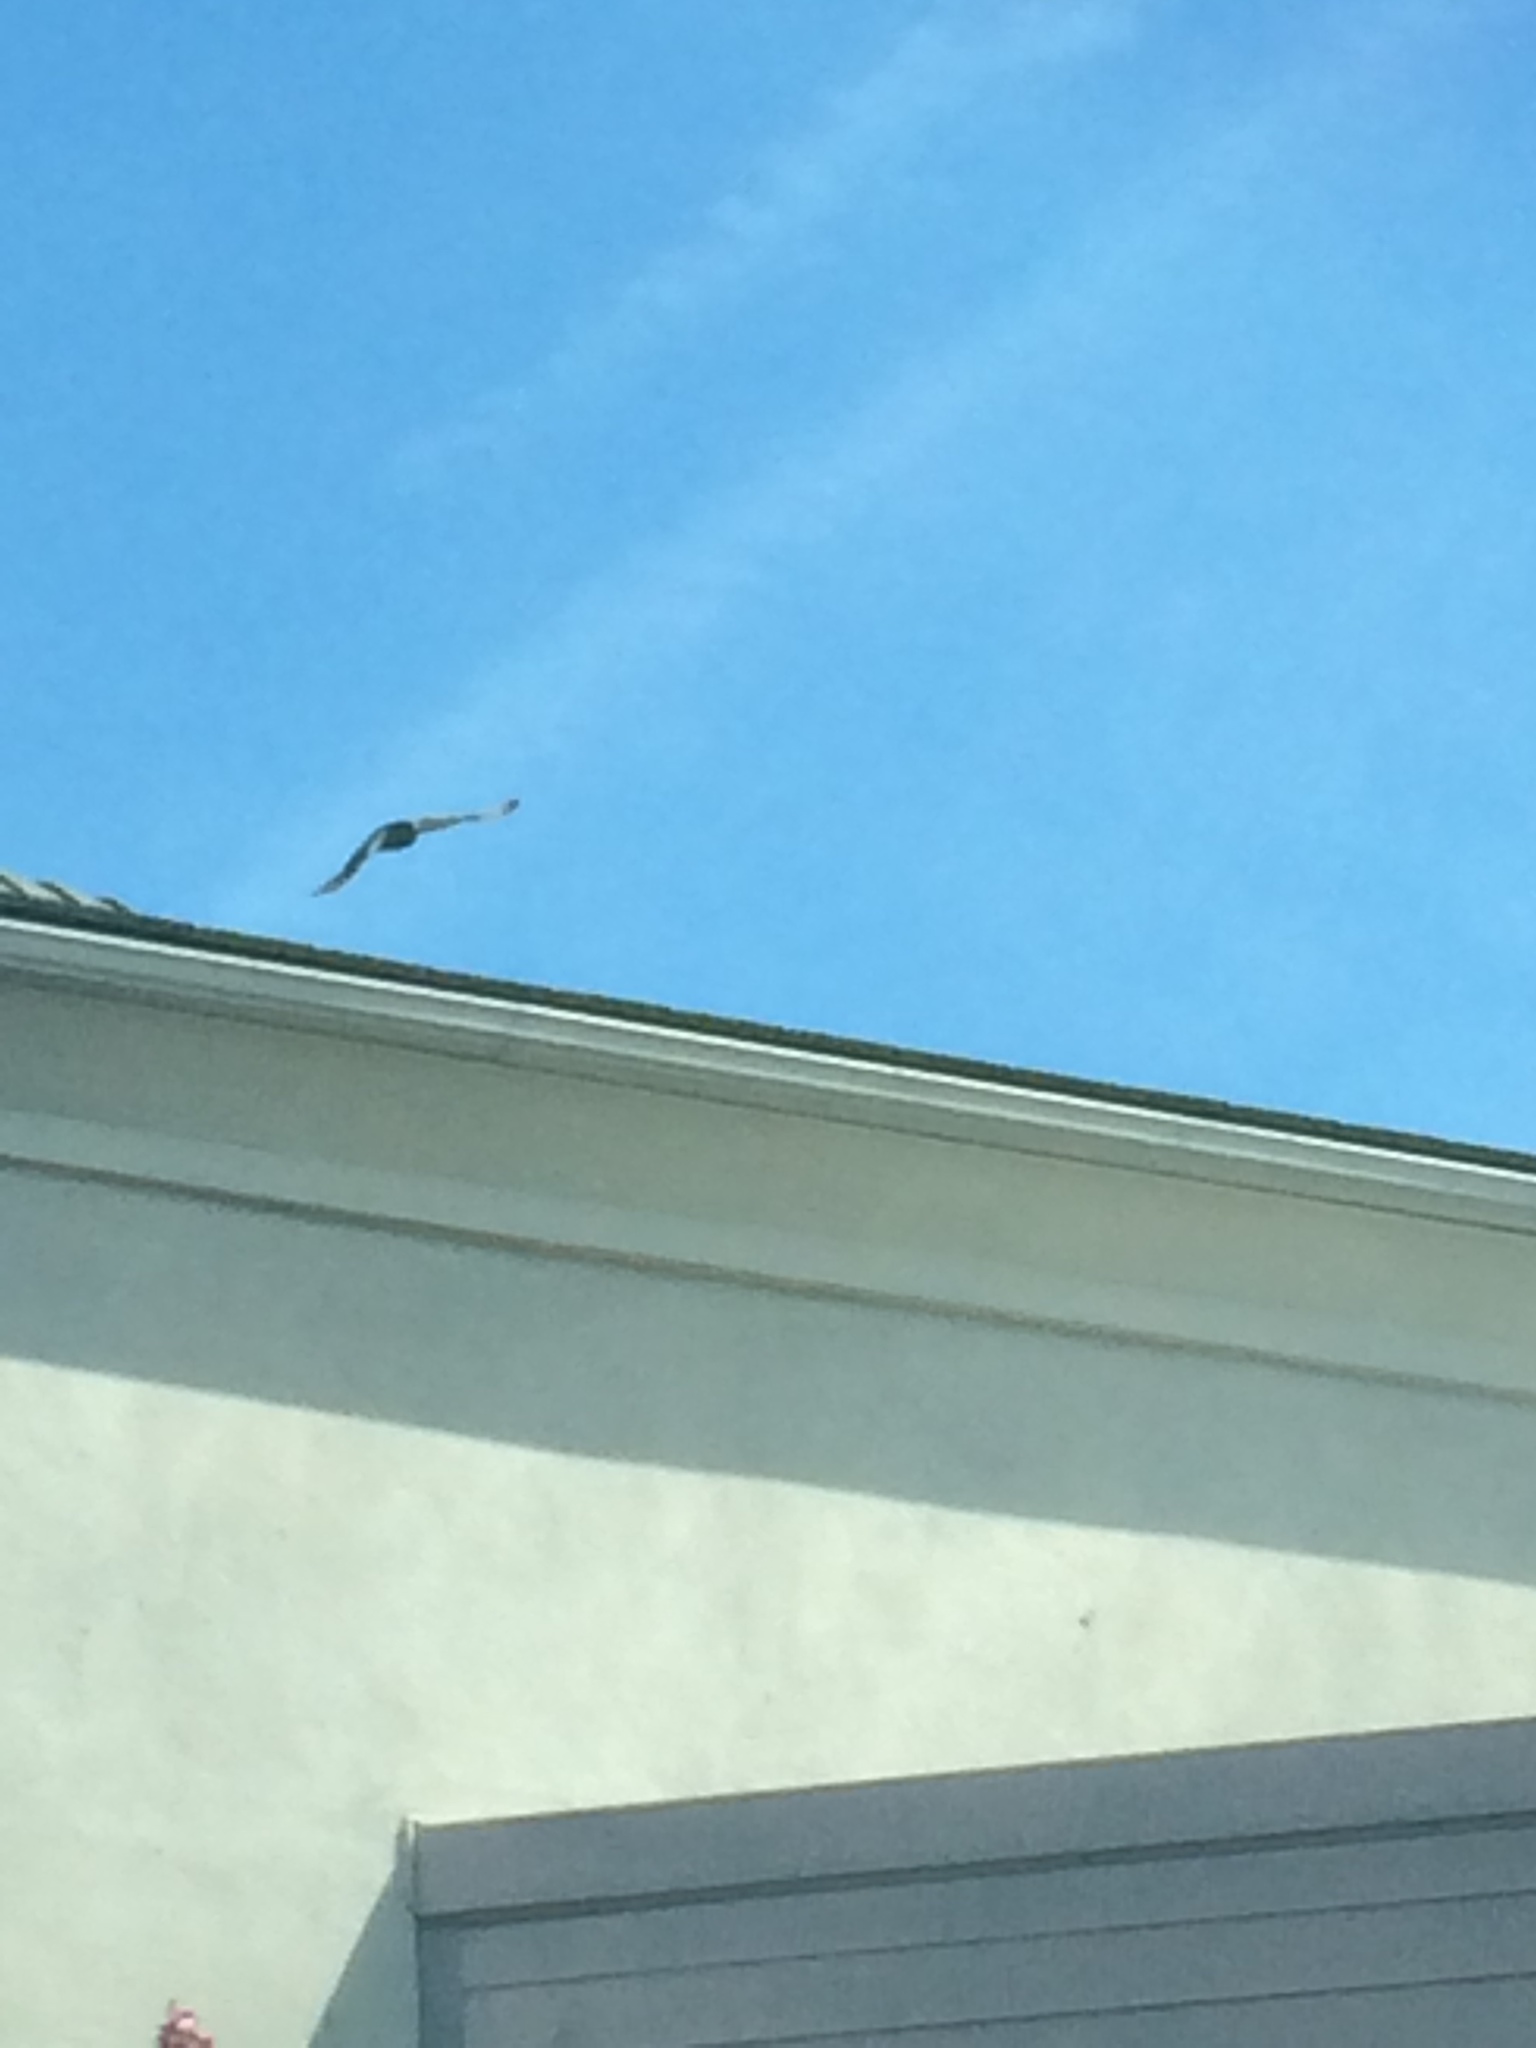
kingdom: Animalia
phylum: Chordata
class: Aves
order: Columbiformes
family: Columbidae
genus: Columba
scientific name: Columba livia
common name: Rock pigeon
